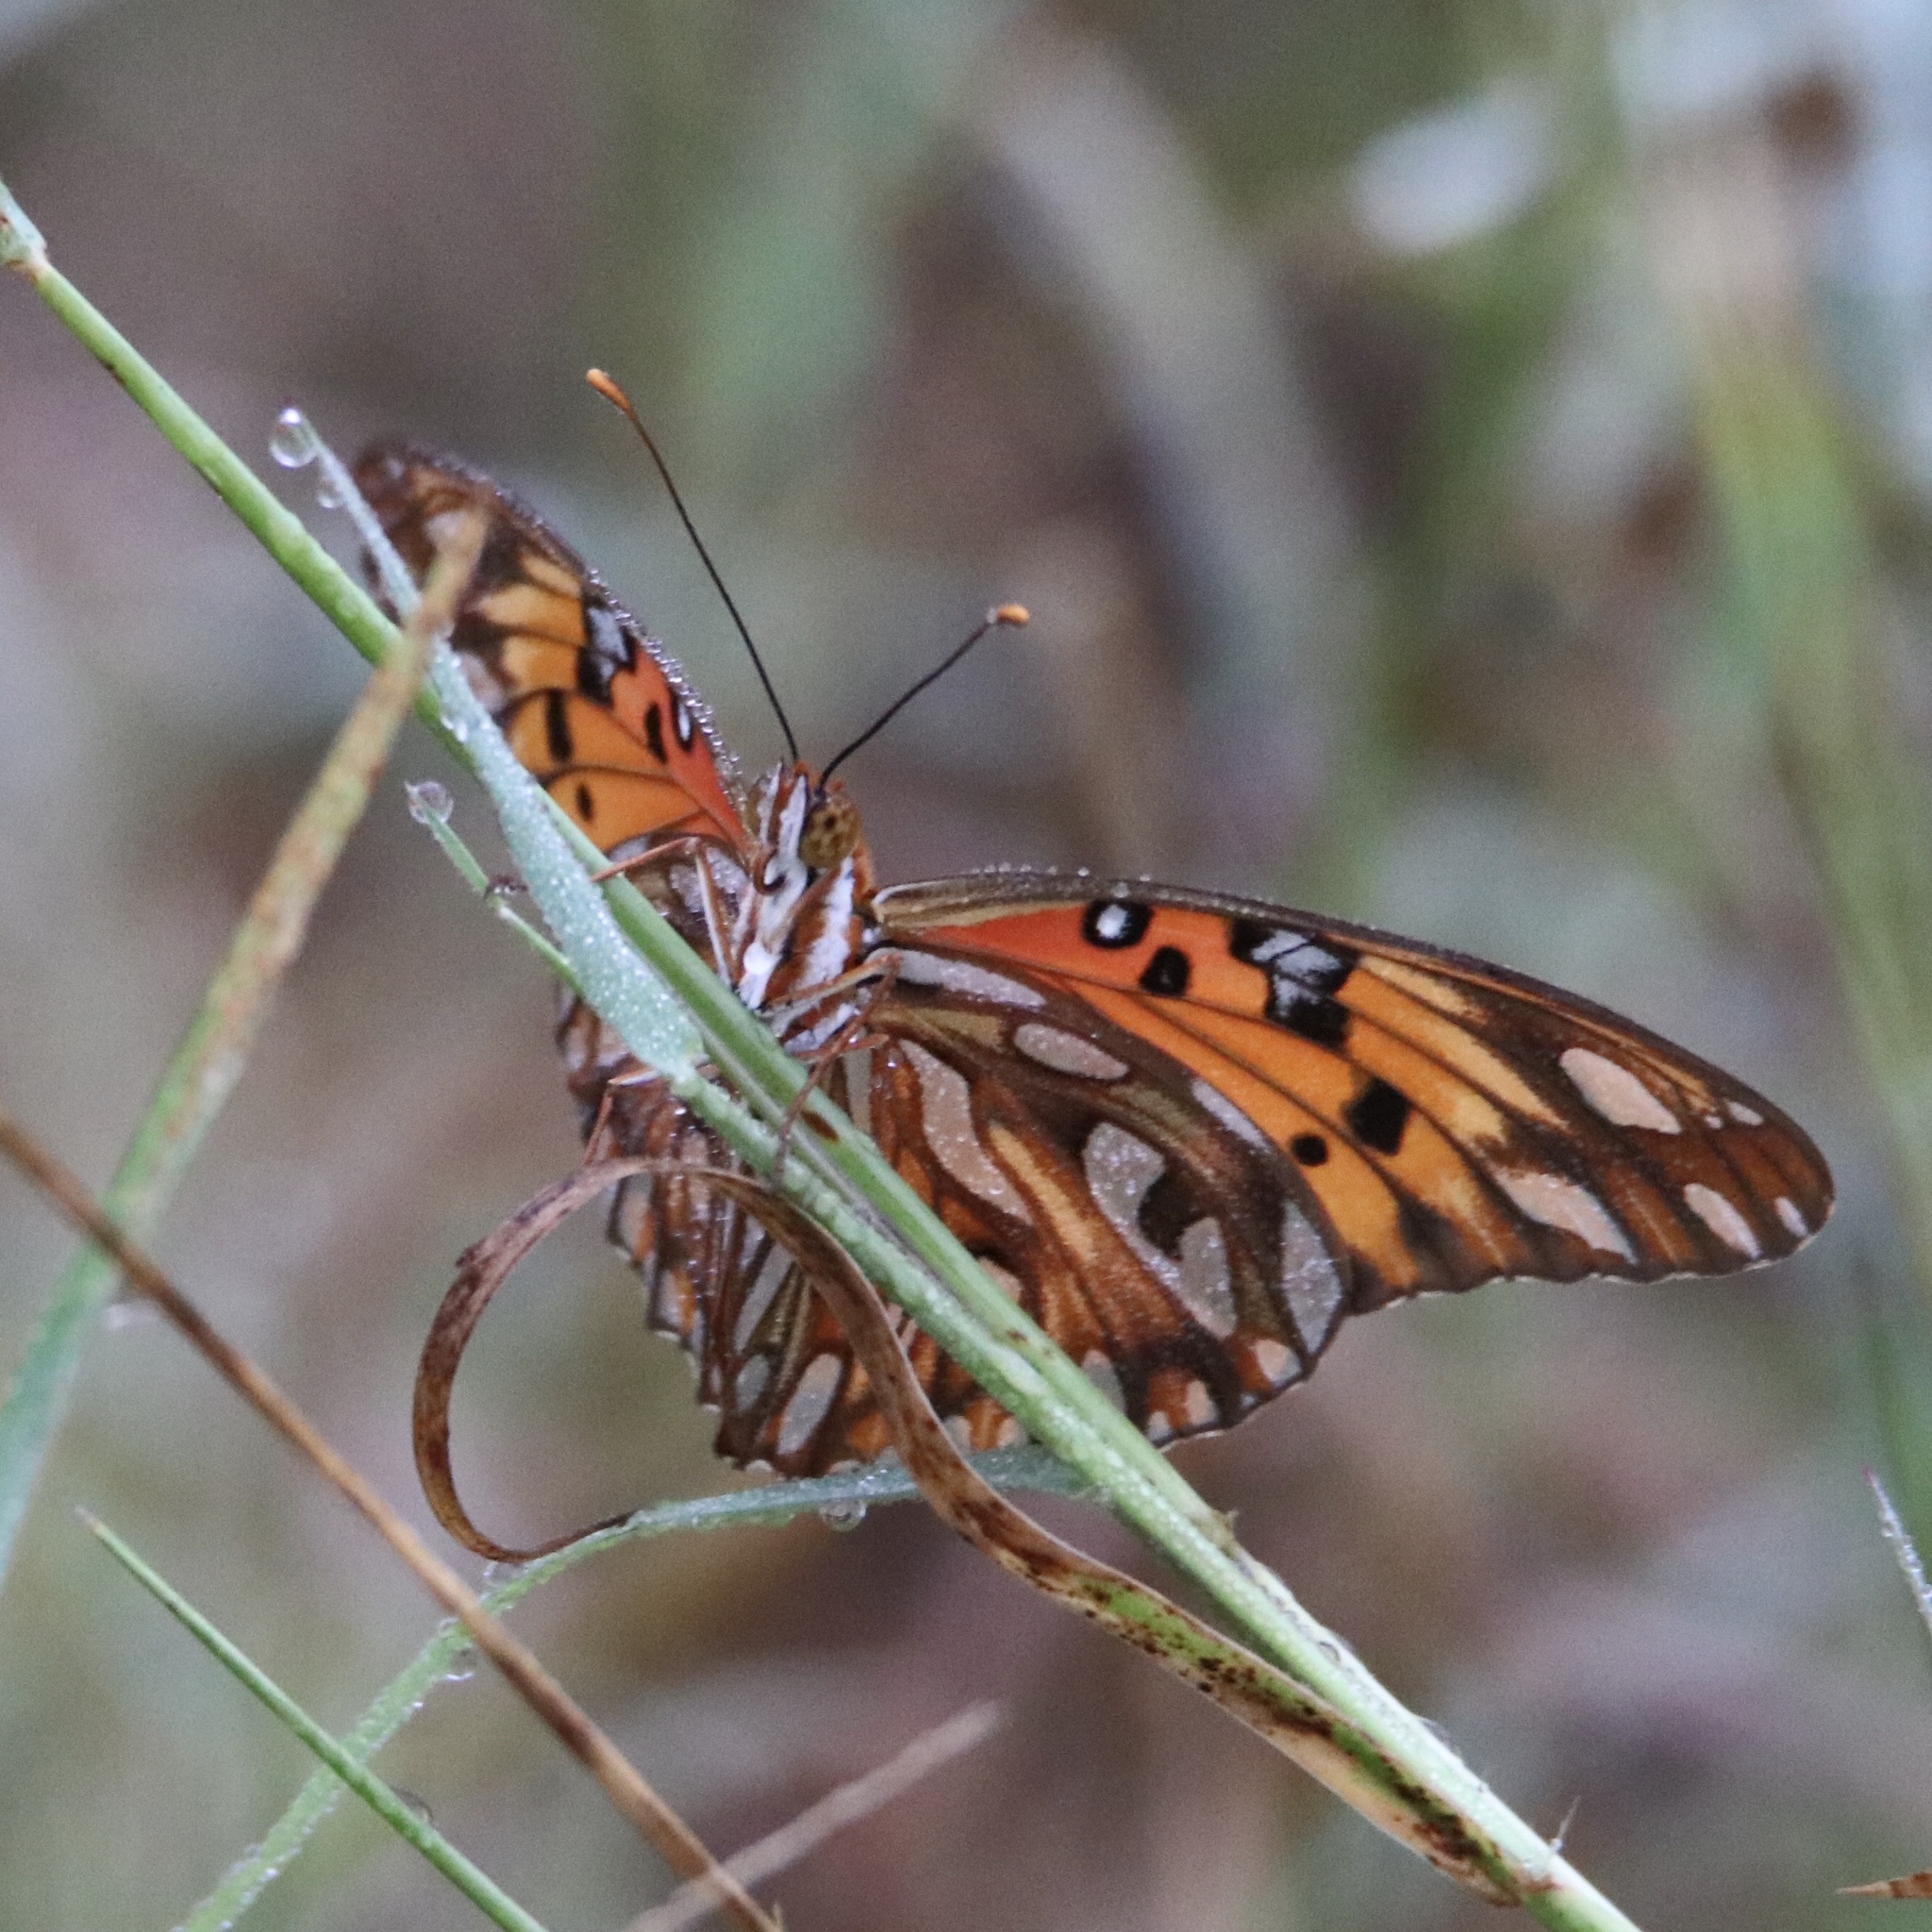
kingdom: Animalia
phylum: Arthropoda
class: Insecta
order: Lepidoptera
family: Nymphalidae
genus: Dione
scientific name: Dione vanillae
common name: Gulf fritillary
